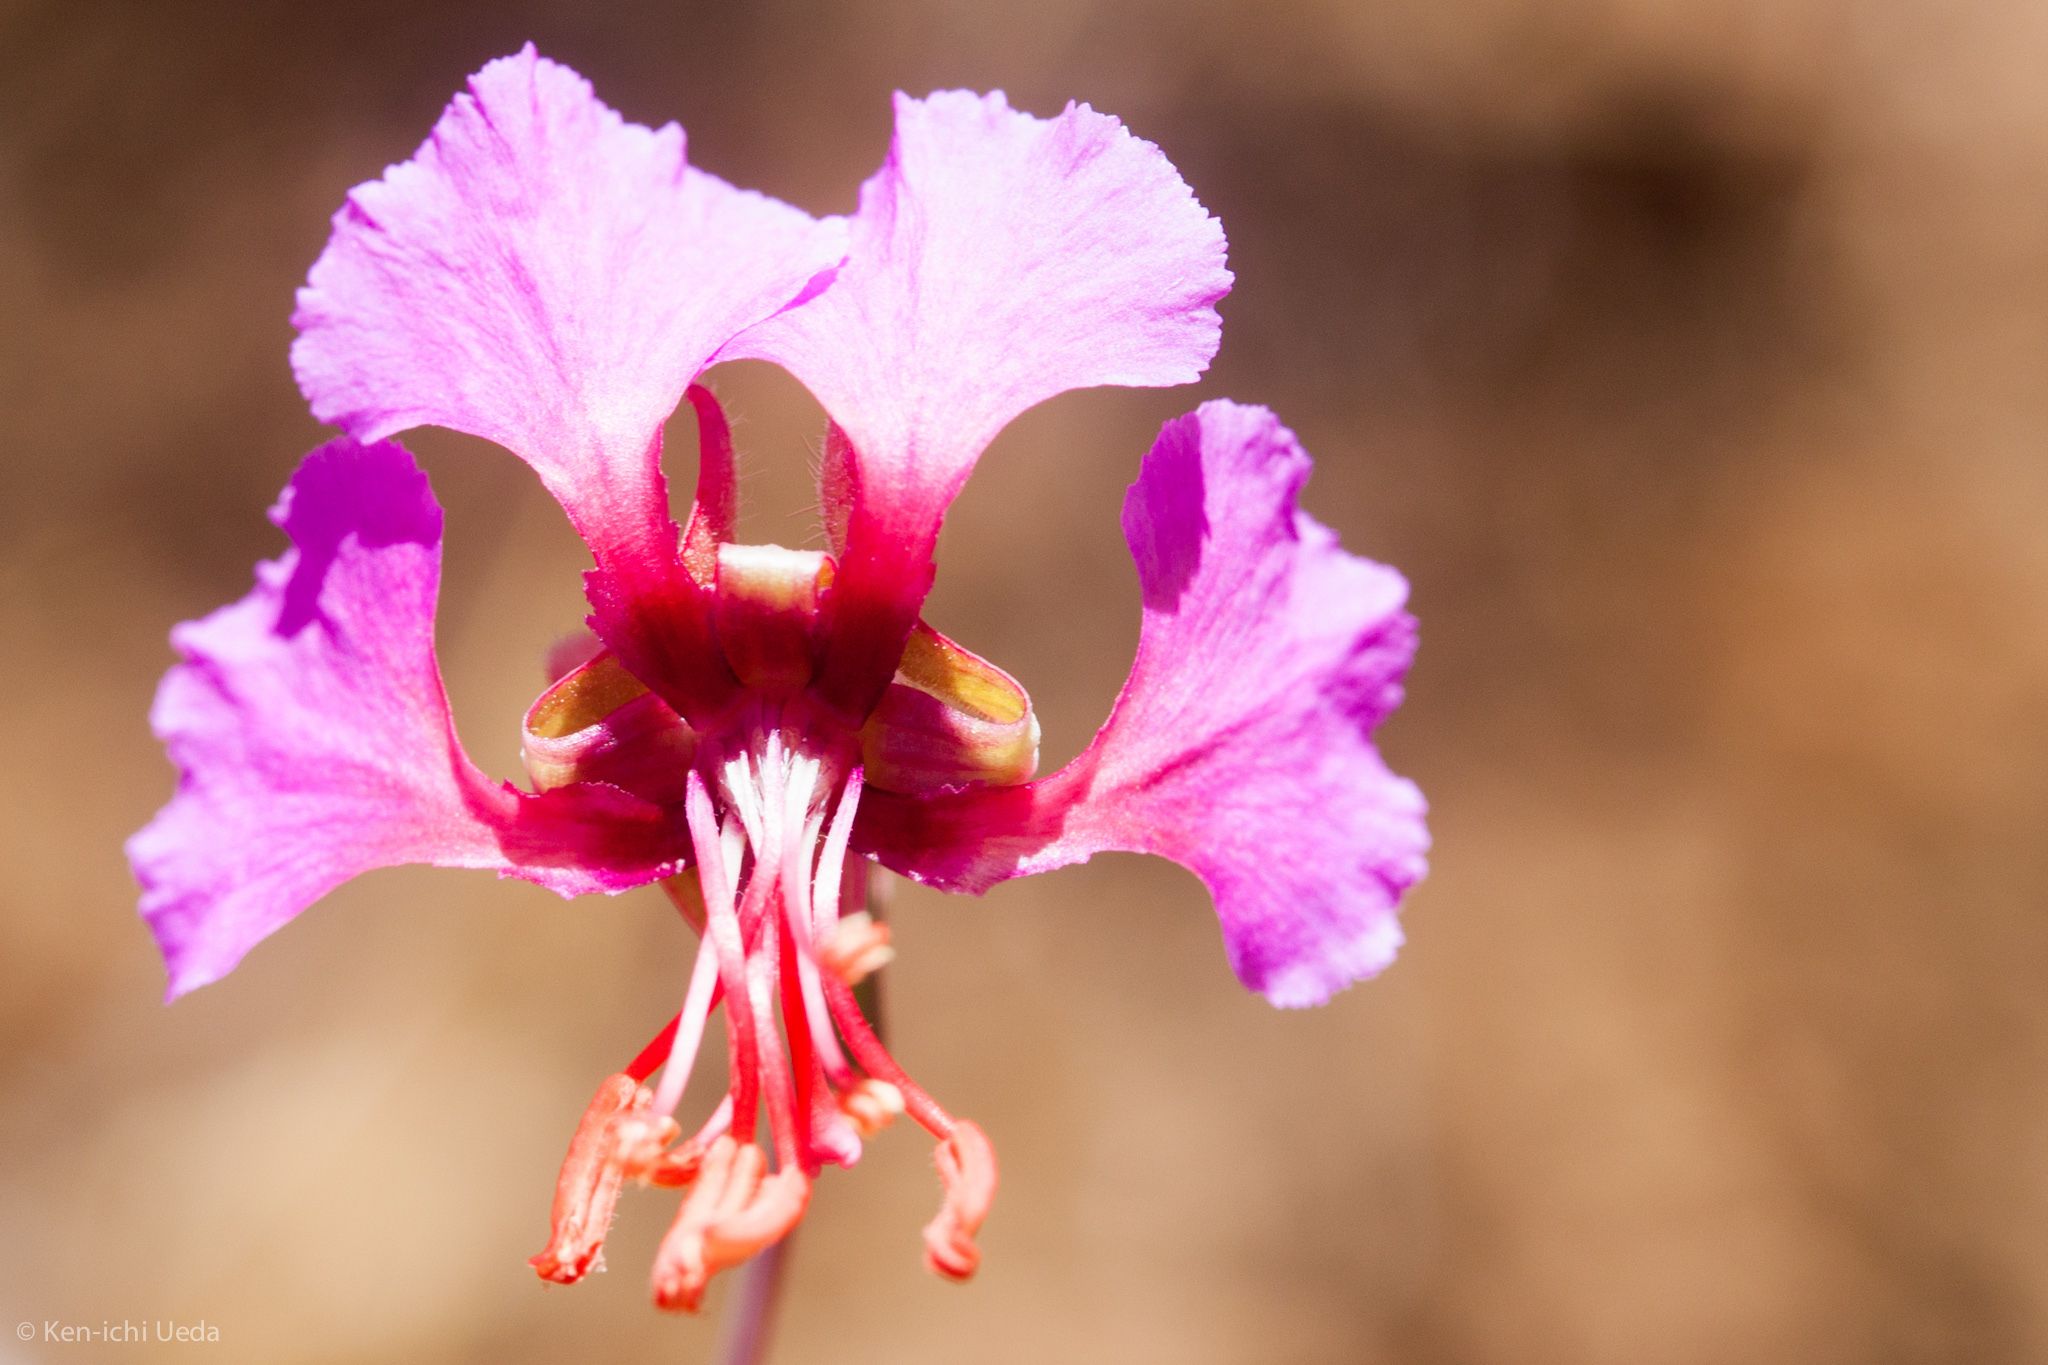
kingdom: Plantae
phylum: Tracheophyta
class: Magnoliopsida
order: Myrtales
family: Onagraceae
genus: Clarkia
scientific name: Clarkia rhomboidea
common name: Broadleaf clarkia
